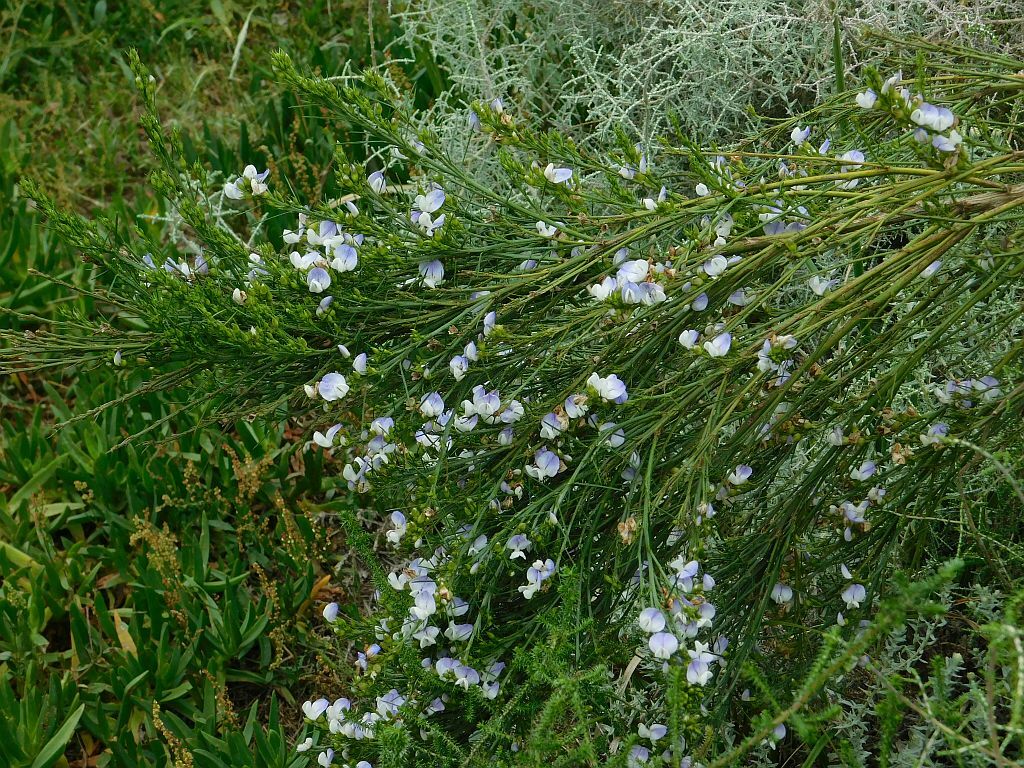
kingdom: Plantae
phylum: Tracheophyta
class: Magnoliopsida
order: Fabales
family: Fabaceae
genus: Psoralea
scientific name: Psoralea ivumba
